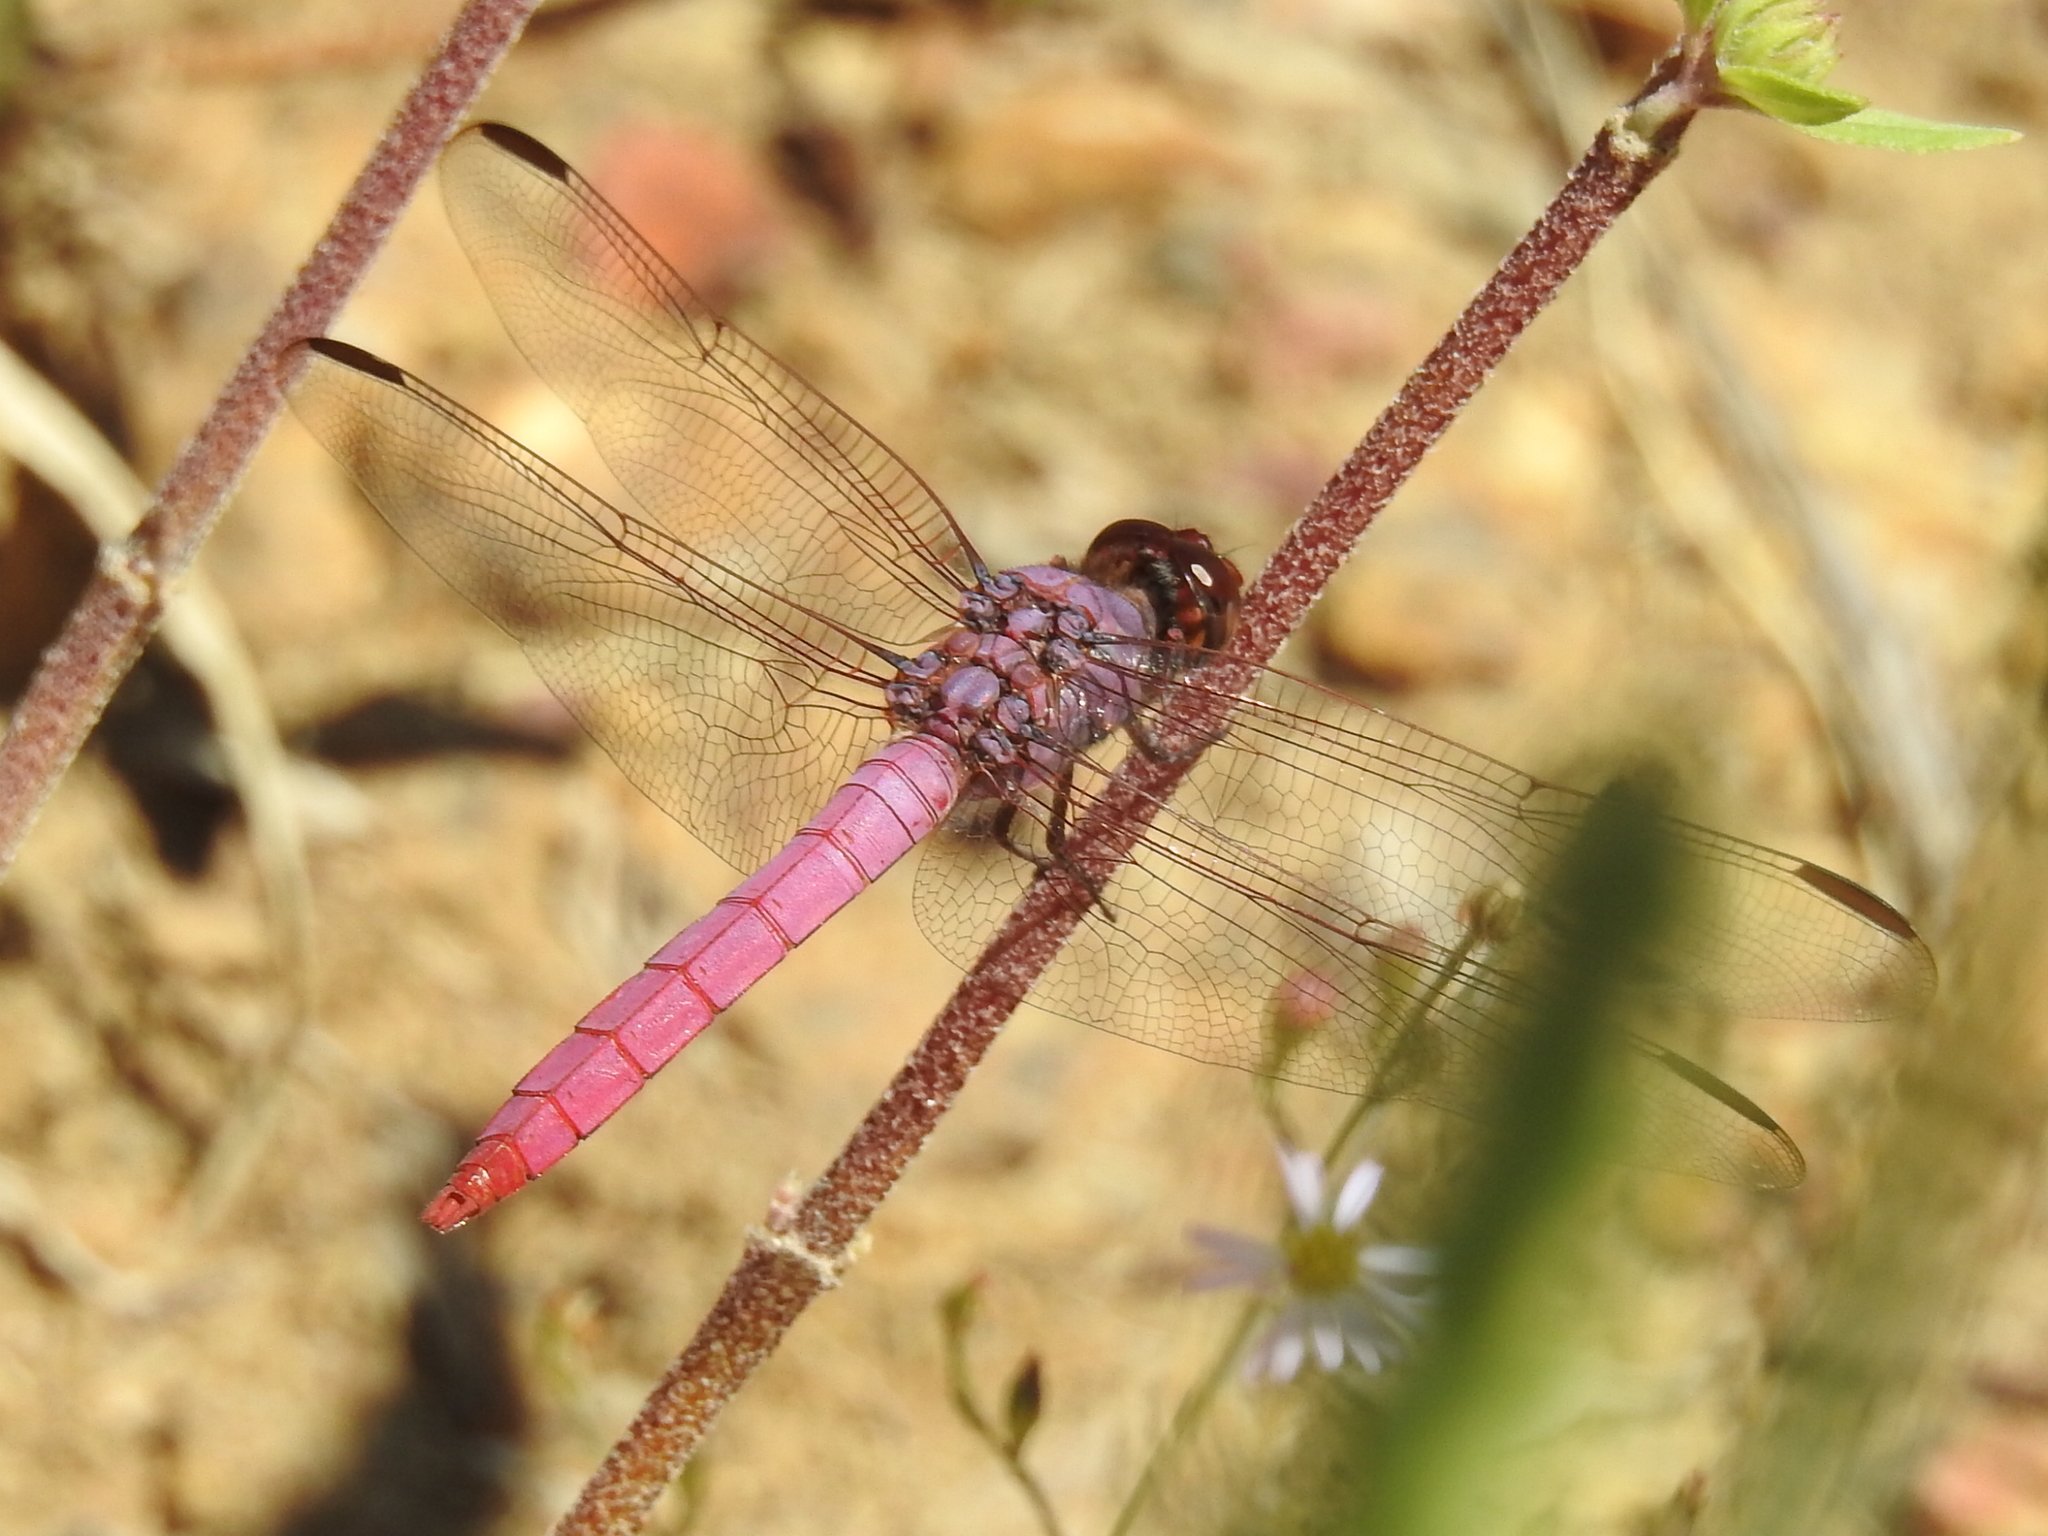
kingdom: Animalia
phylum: Arthropoda
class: Insecta
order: Odonata
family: Libellulidae
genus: Orthemis
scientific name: Orthemis ferruginea
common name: Roseate skimmer
